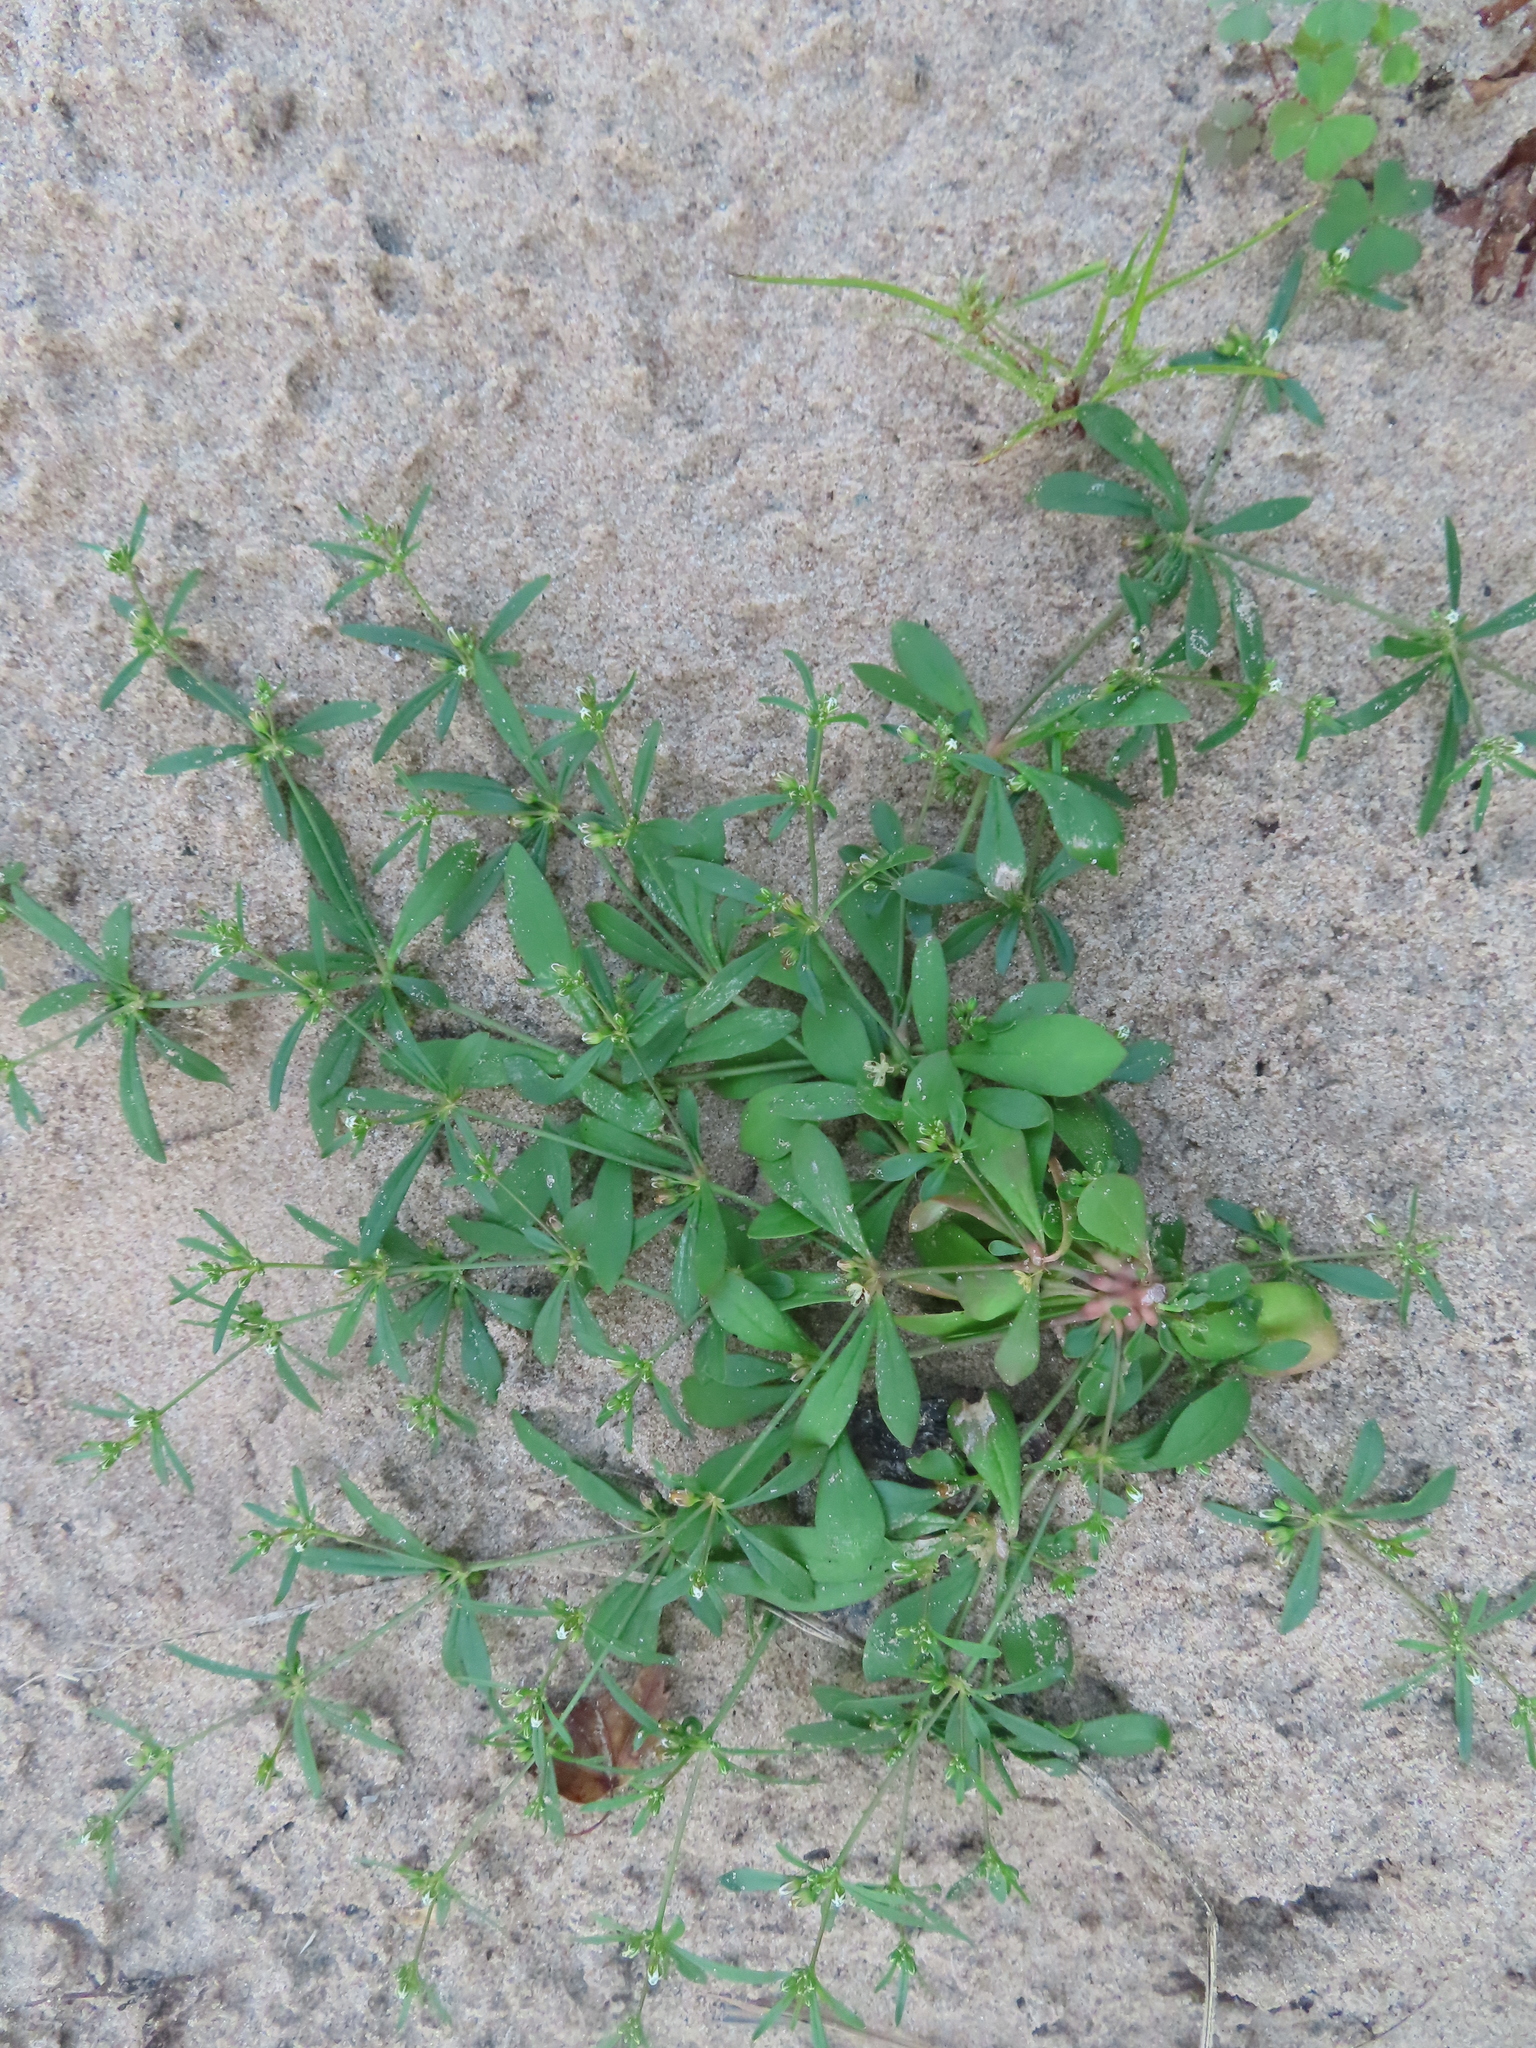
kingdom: Plantae
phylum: Tracheophyta
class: Magnoliopsida
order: Caryophyllales
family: Molluginaceae
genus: Mollugo
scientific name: Mollugo verticillata
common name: Green carpetweed
